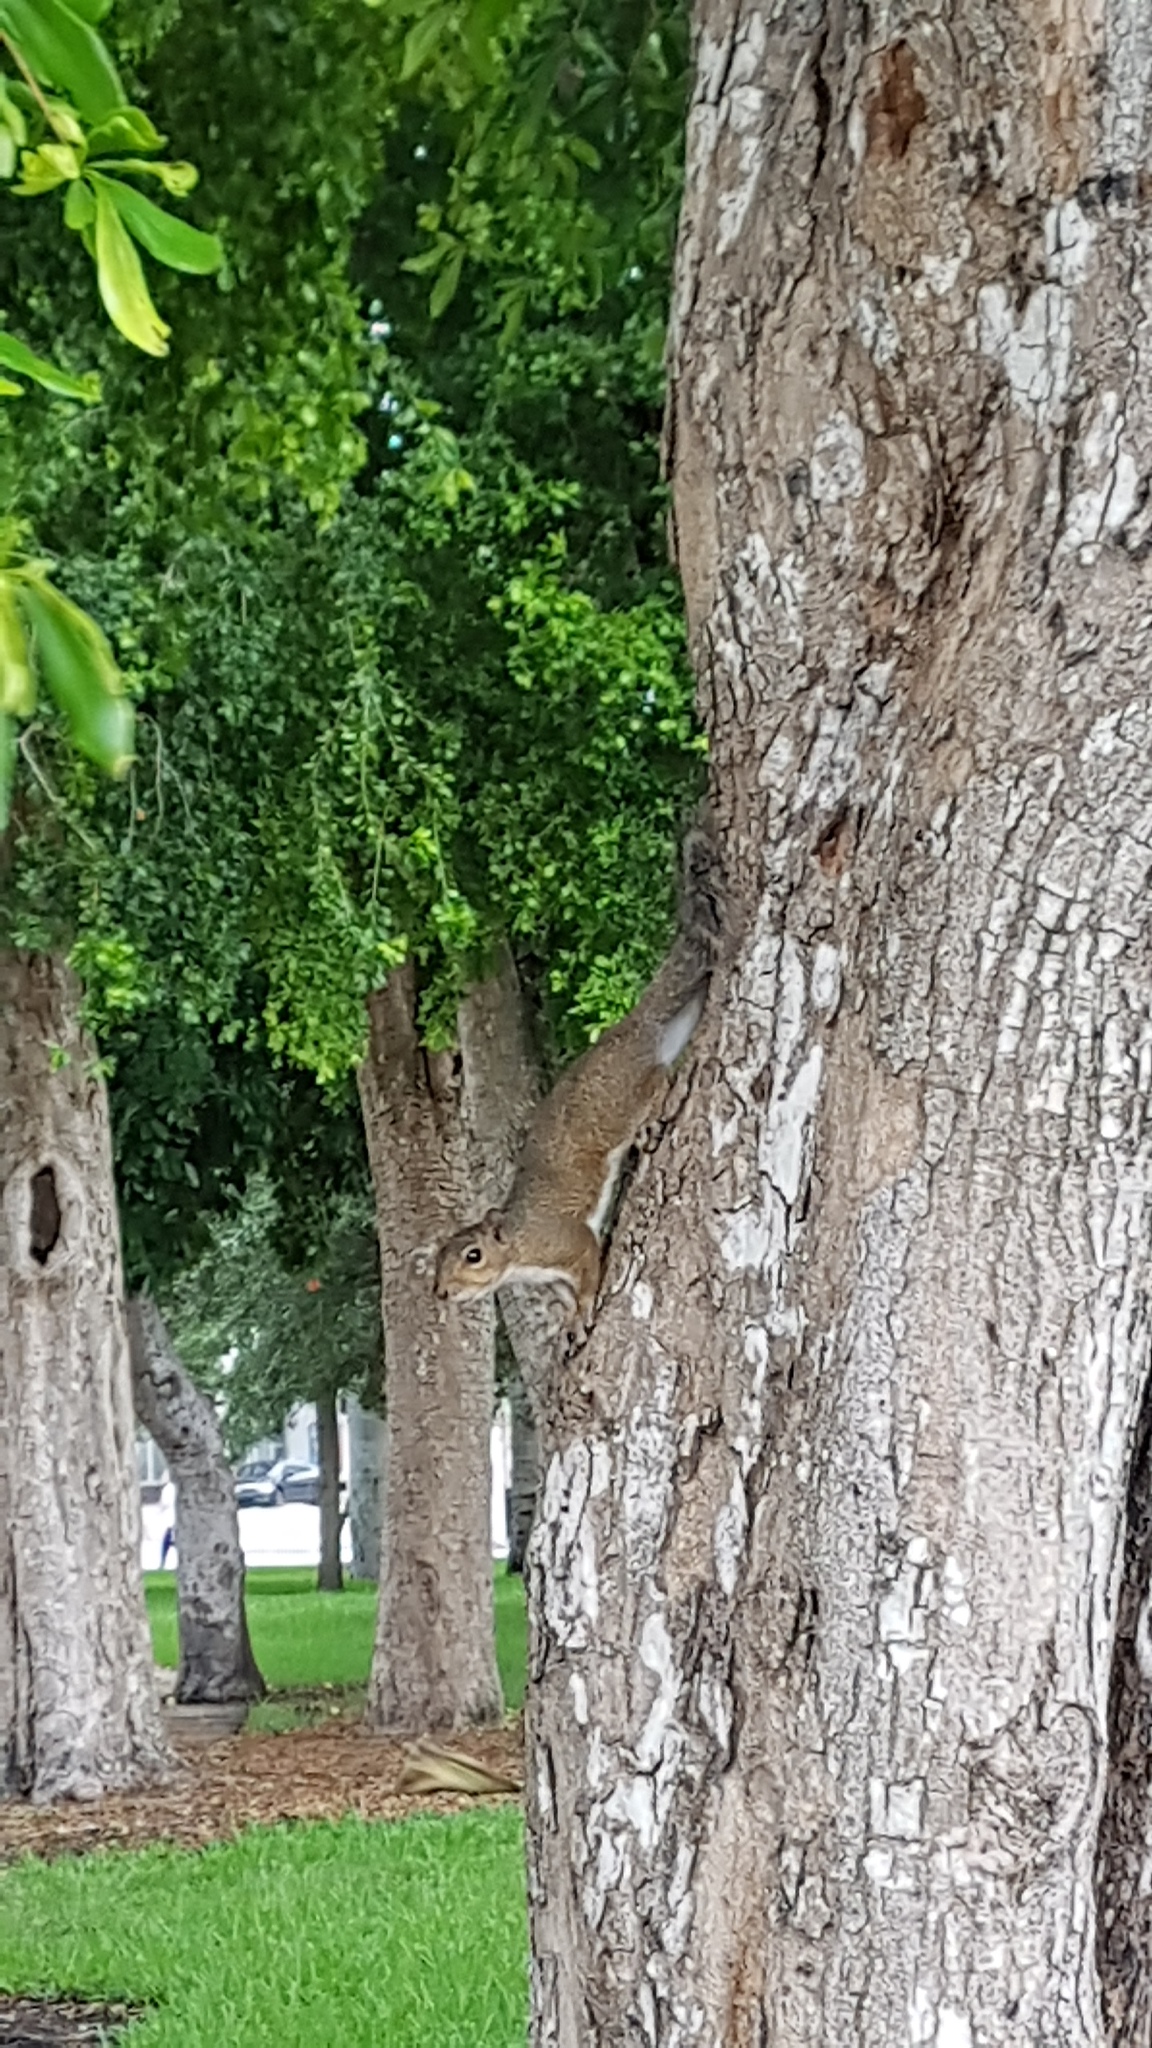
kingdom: Animalia
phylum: Chordata
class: Mammalia
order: Rodentia
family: Sciuridae
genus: Sciurus
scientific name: Sciurus carolinensis
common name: Eastern gray squirrel
